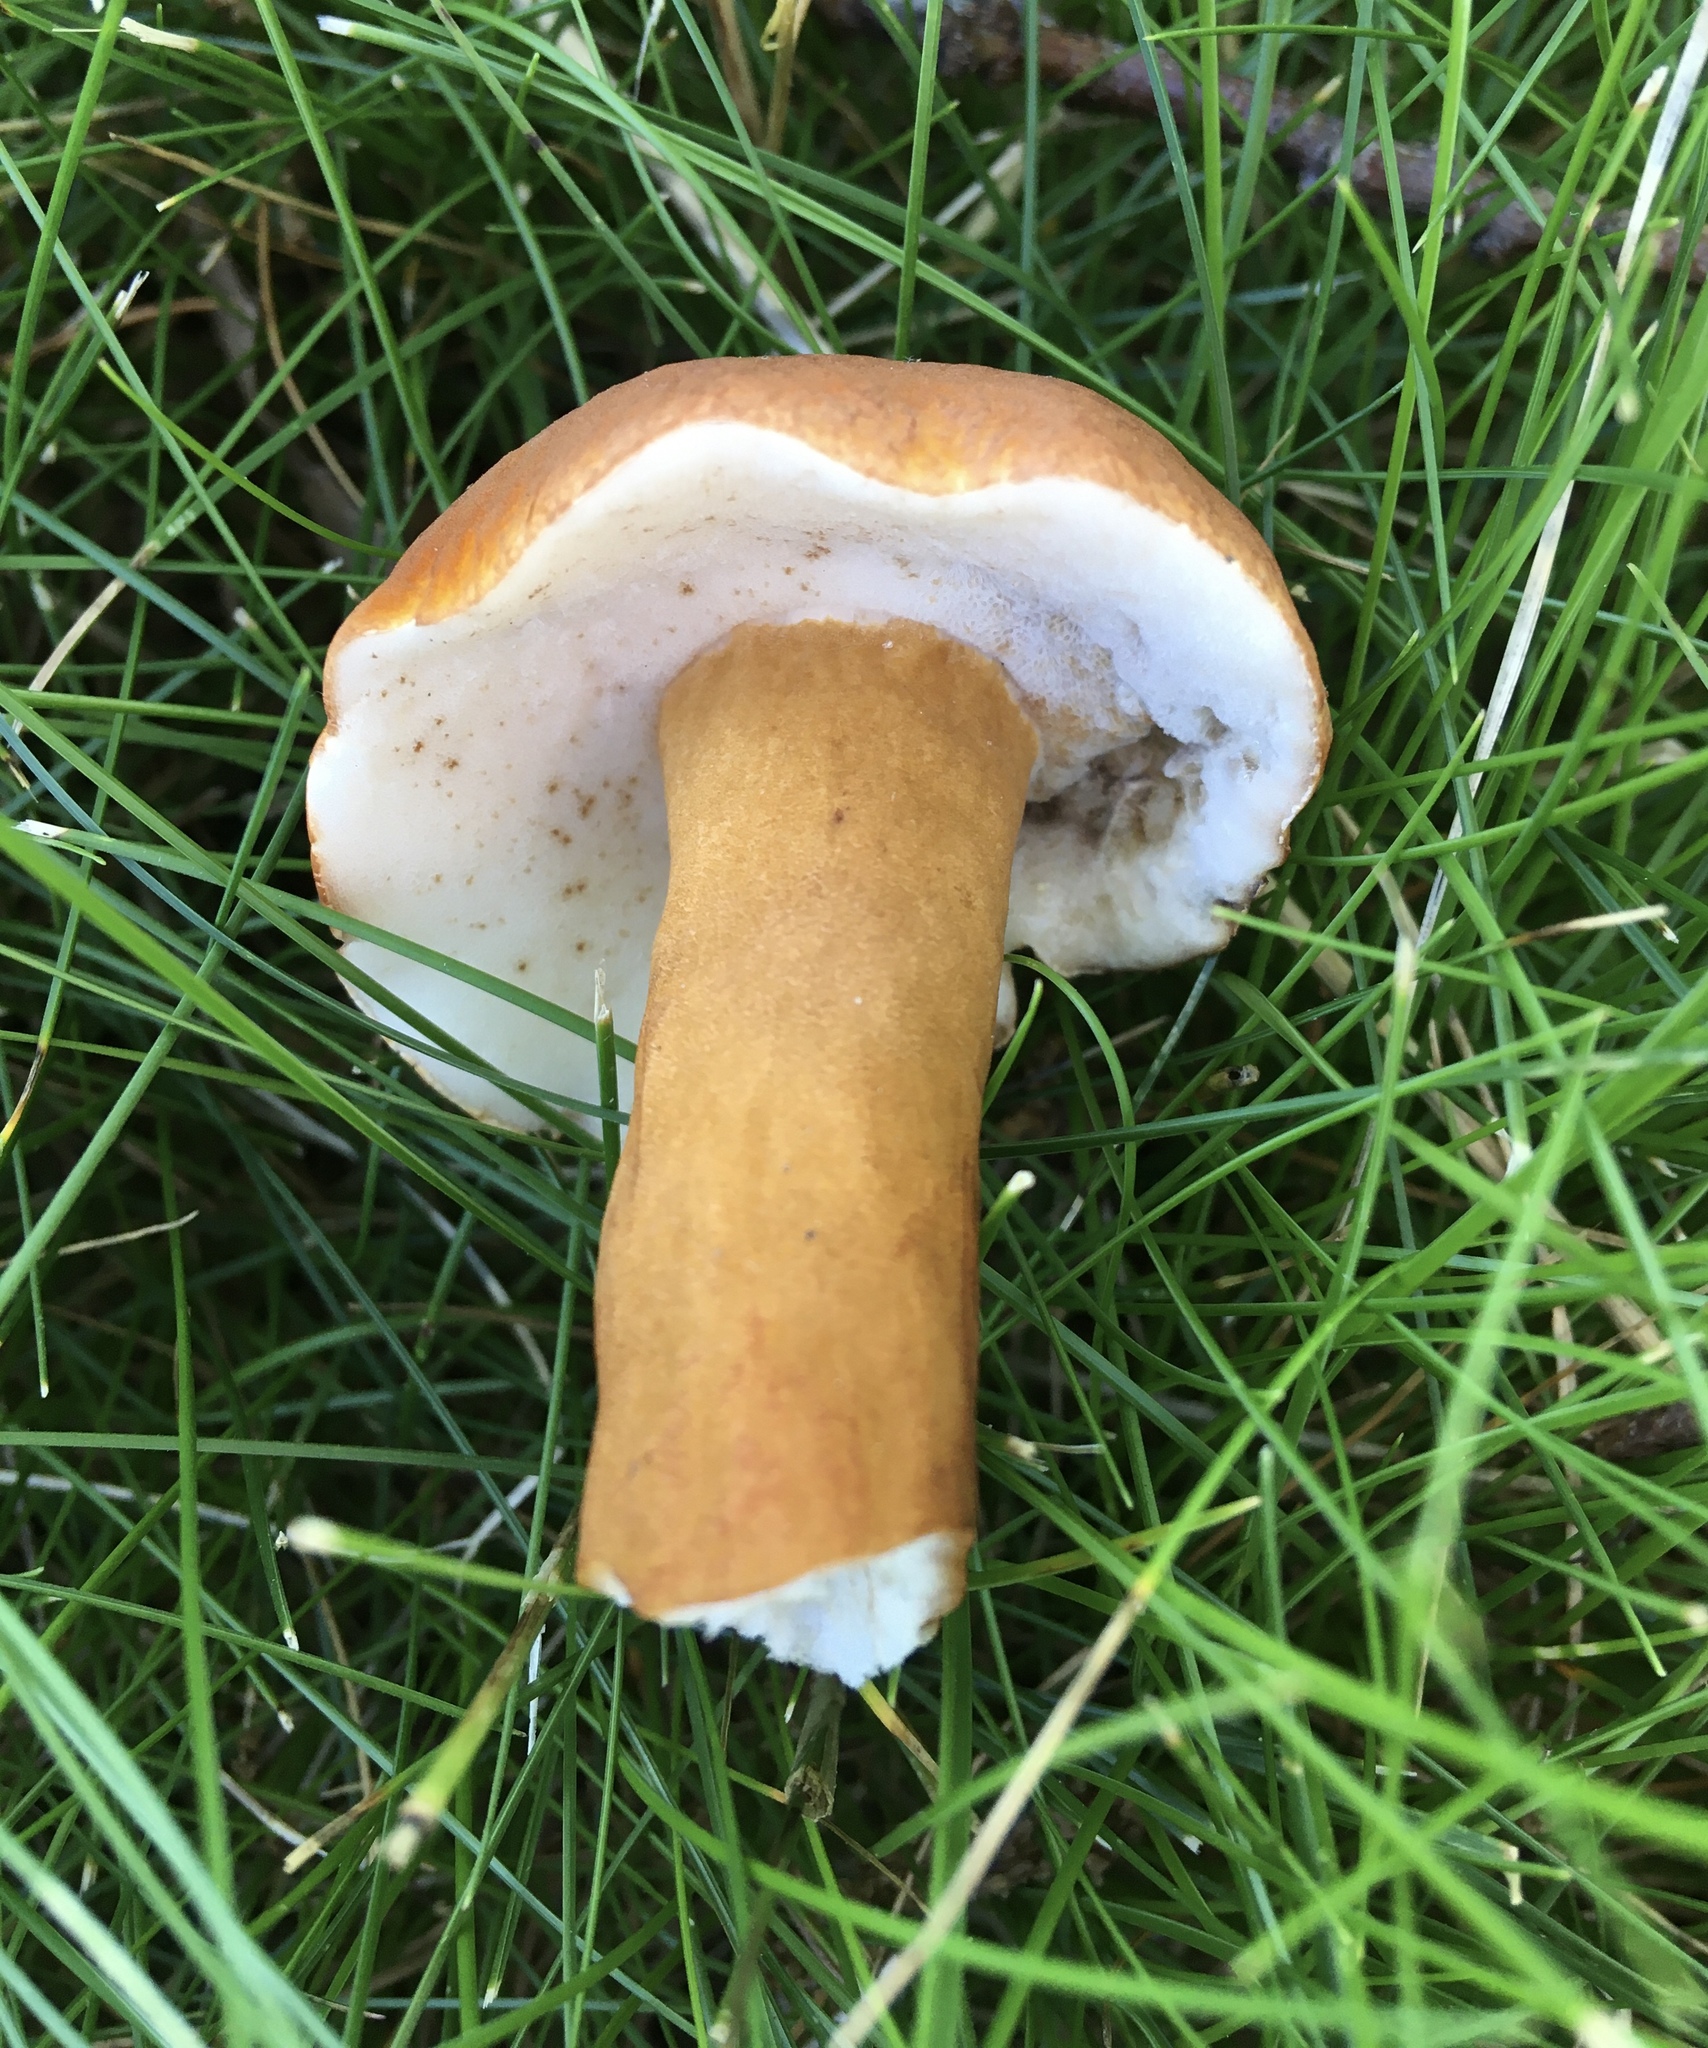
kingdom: Fungi
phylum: Basidiomycota
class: Agaricomycetes
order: Boletales
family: Gyroporaceae
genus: Gyroporus
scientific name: Gyroporus borealis
